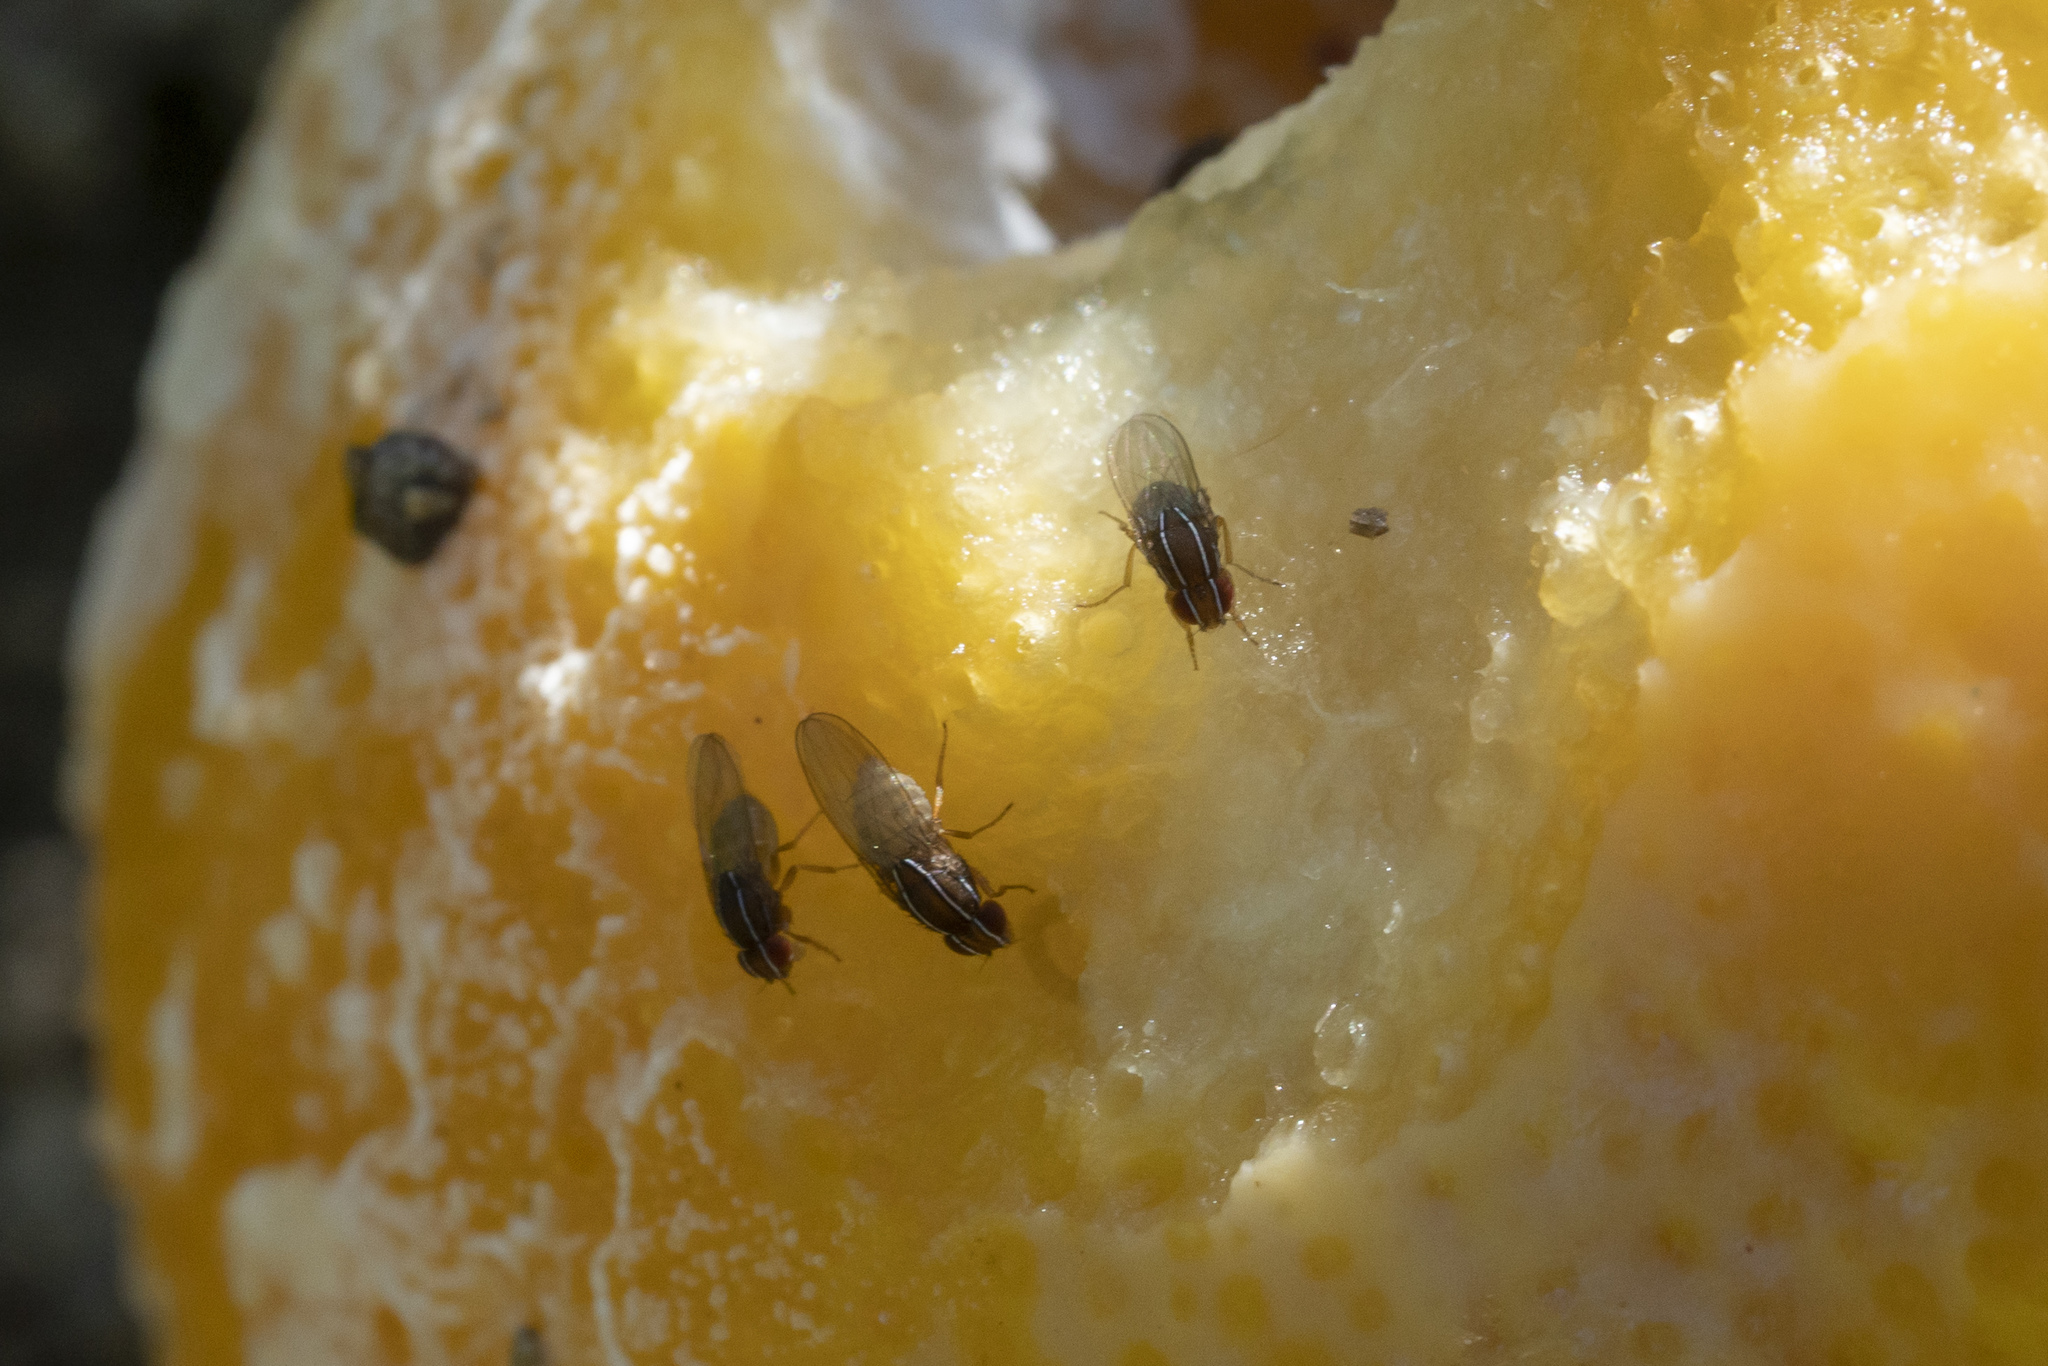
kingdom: Animalia
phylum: Arthropoda
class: Insecta
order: Diptera
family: Drosophilidae
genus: Zaprionus
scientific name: Zaprionus tuberculatus
